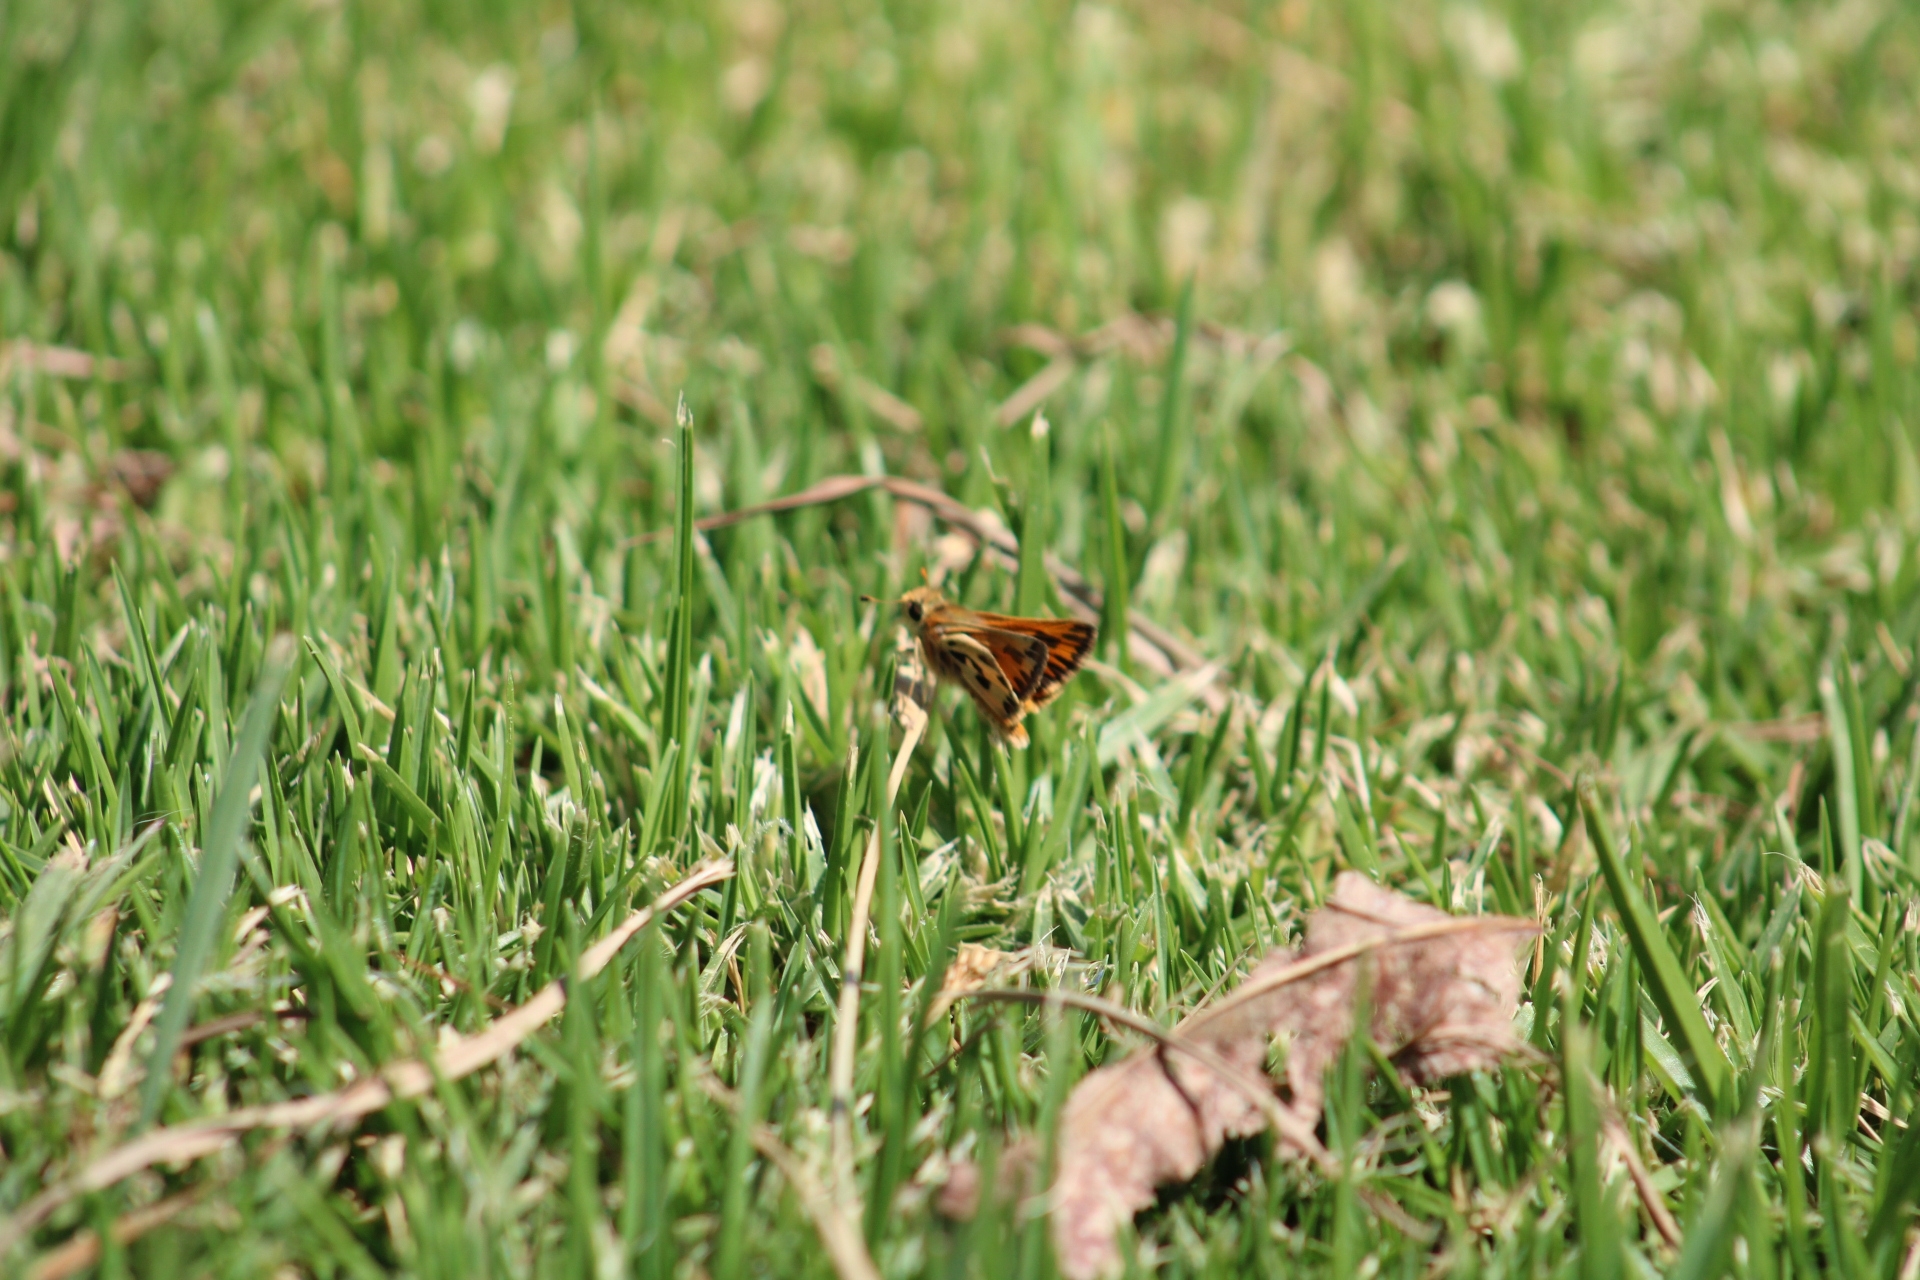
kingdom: Animalia
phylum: Arthropoda
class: Insecta
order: Lepidoptera
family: Hesperiidae
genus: Hylephila
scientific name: Hylephila fasciolata
